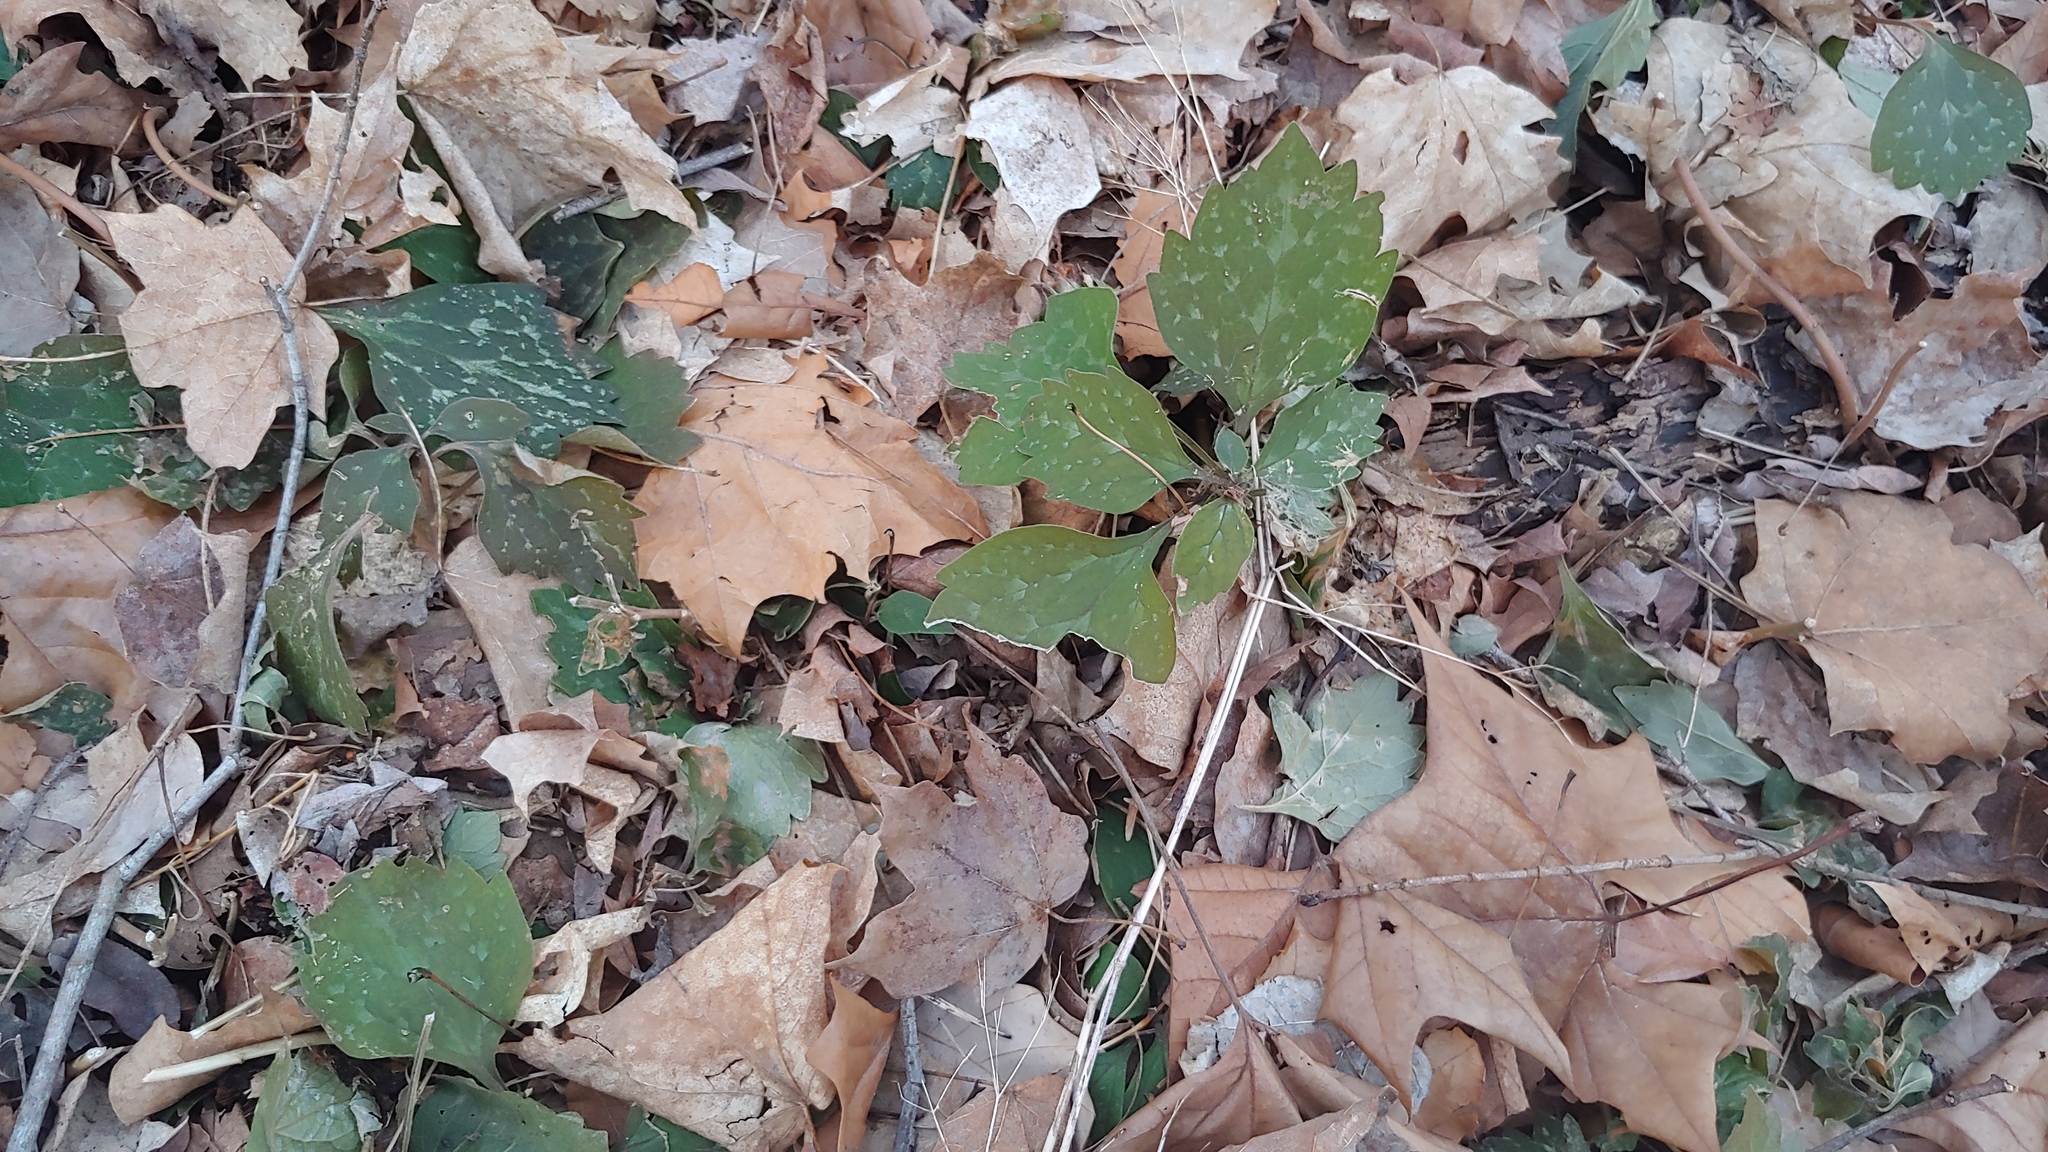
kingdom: Plantae
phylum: Tracheophyta
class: Magnoliopsida
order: Buxales
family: Buxaceae
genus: Pachysandra
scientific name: Pachysandra procumbens
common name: Mountain-spurge
